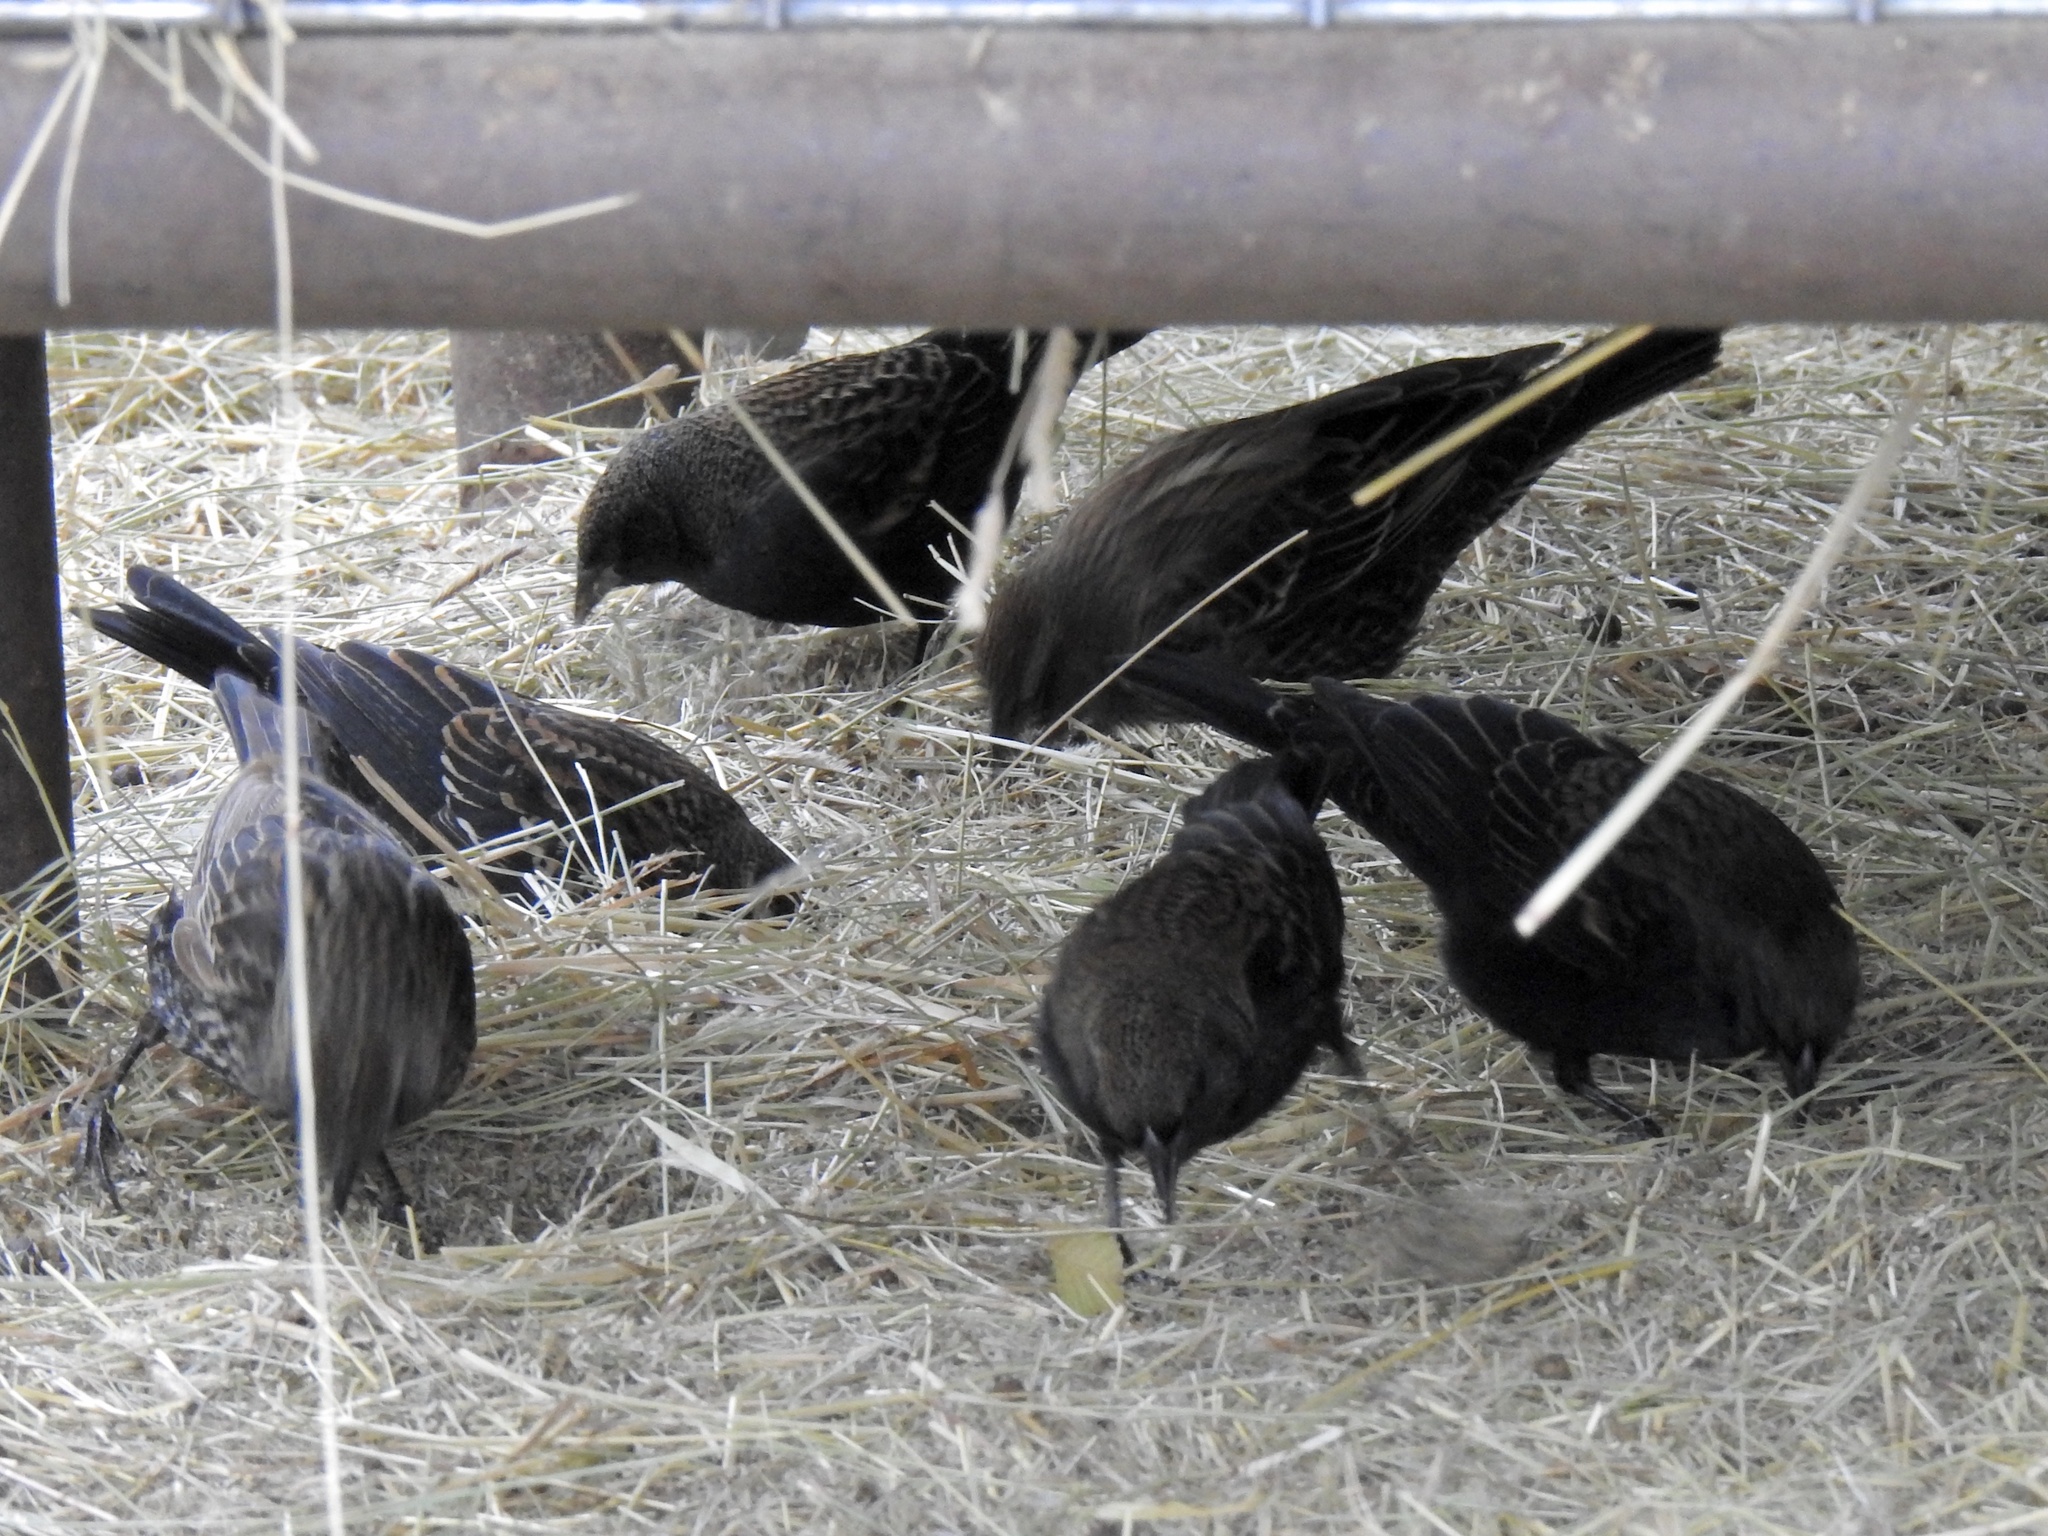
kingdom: Animalia
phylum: Chordata
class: Aves
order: Passeriformes
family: Icteridae
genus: Agelaius
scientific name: Agelaius phoeniceus
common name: Red-winged blackbird
